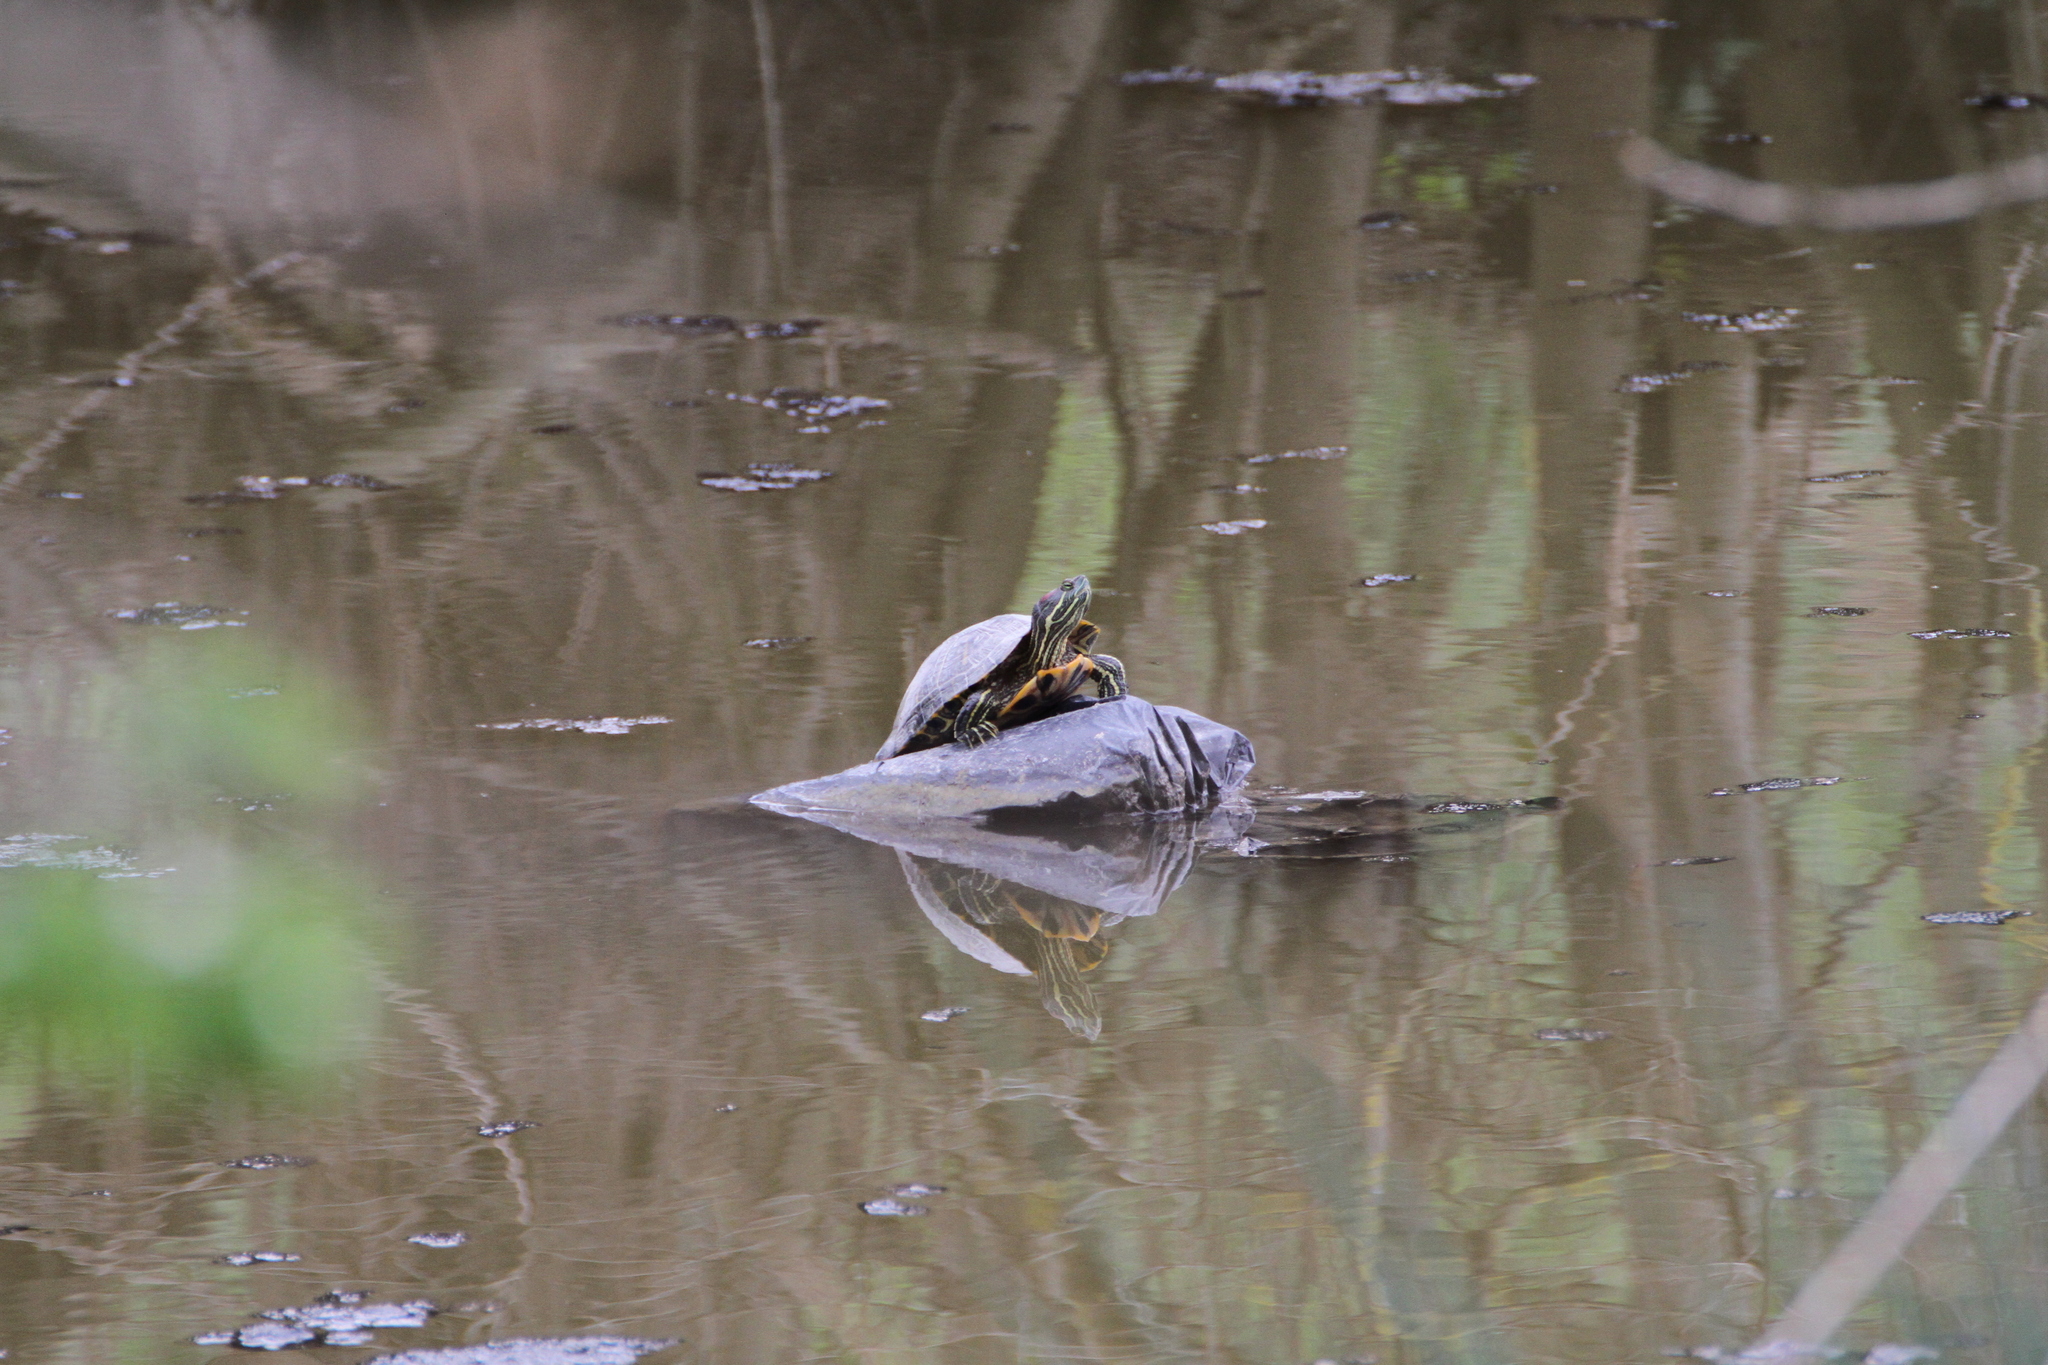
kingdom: Animalia
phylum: Chordata
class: Testudines
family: Emydidae
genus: Trachemys
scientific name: Trachemys scripta
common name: Slider
